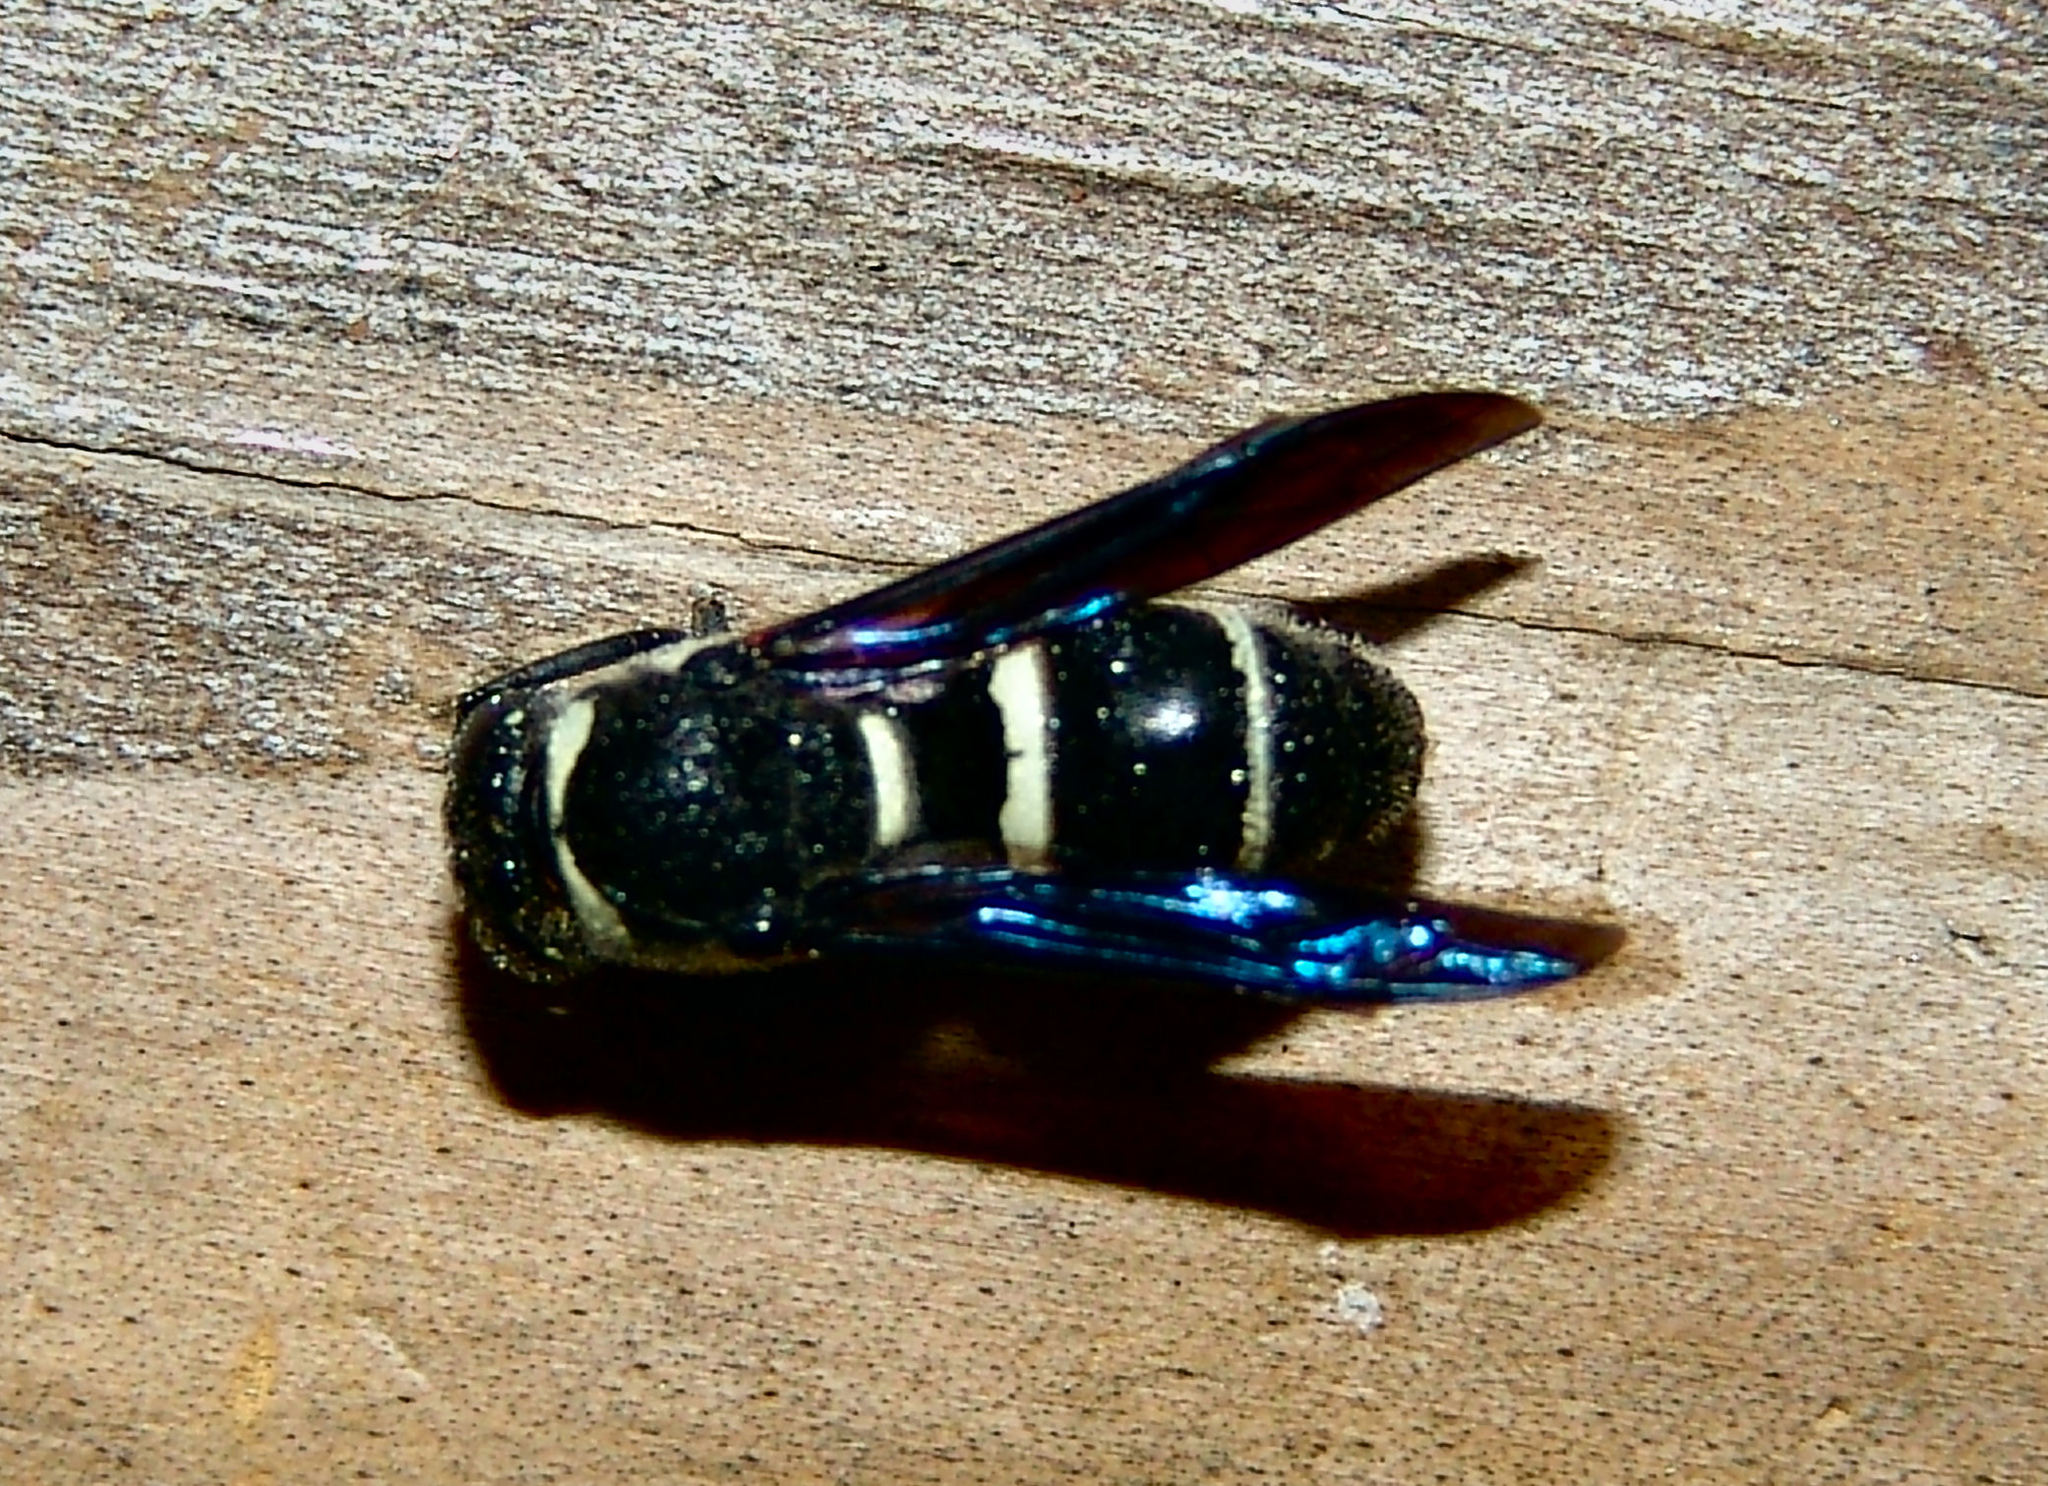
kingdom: Animalia
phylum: Arthropoda
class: Insecta
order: Hymenoptera
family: Eumenidae
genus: Euodynerus
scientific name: Euodynerus
